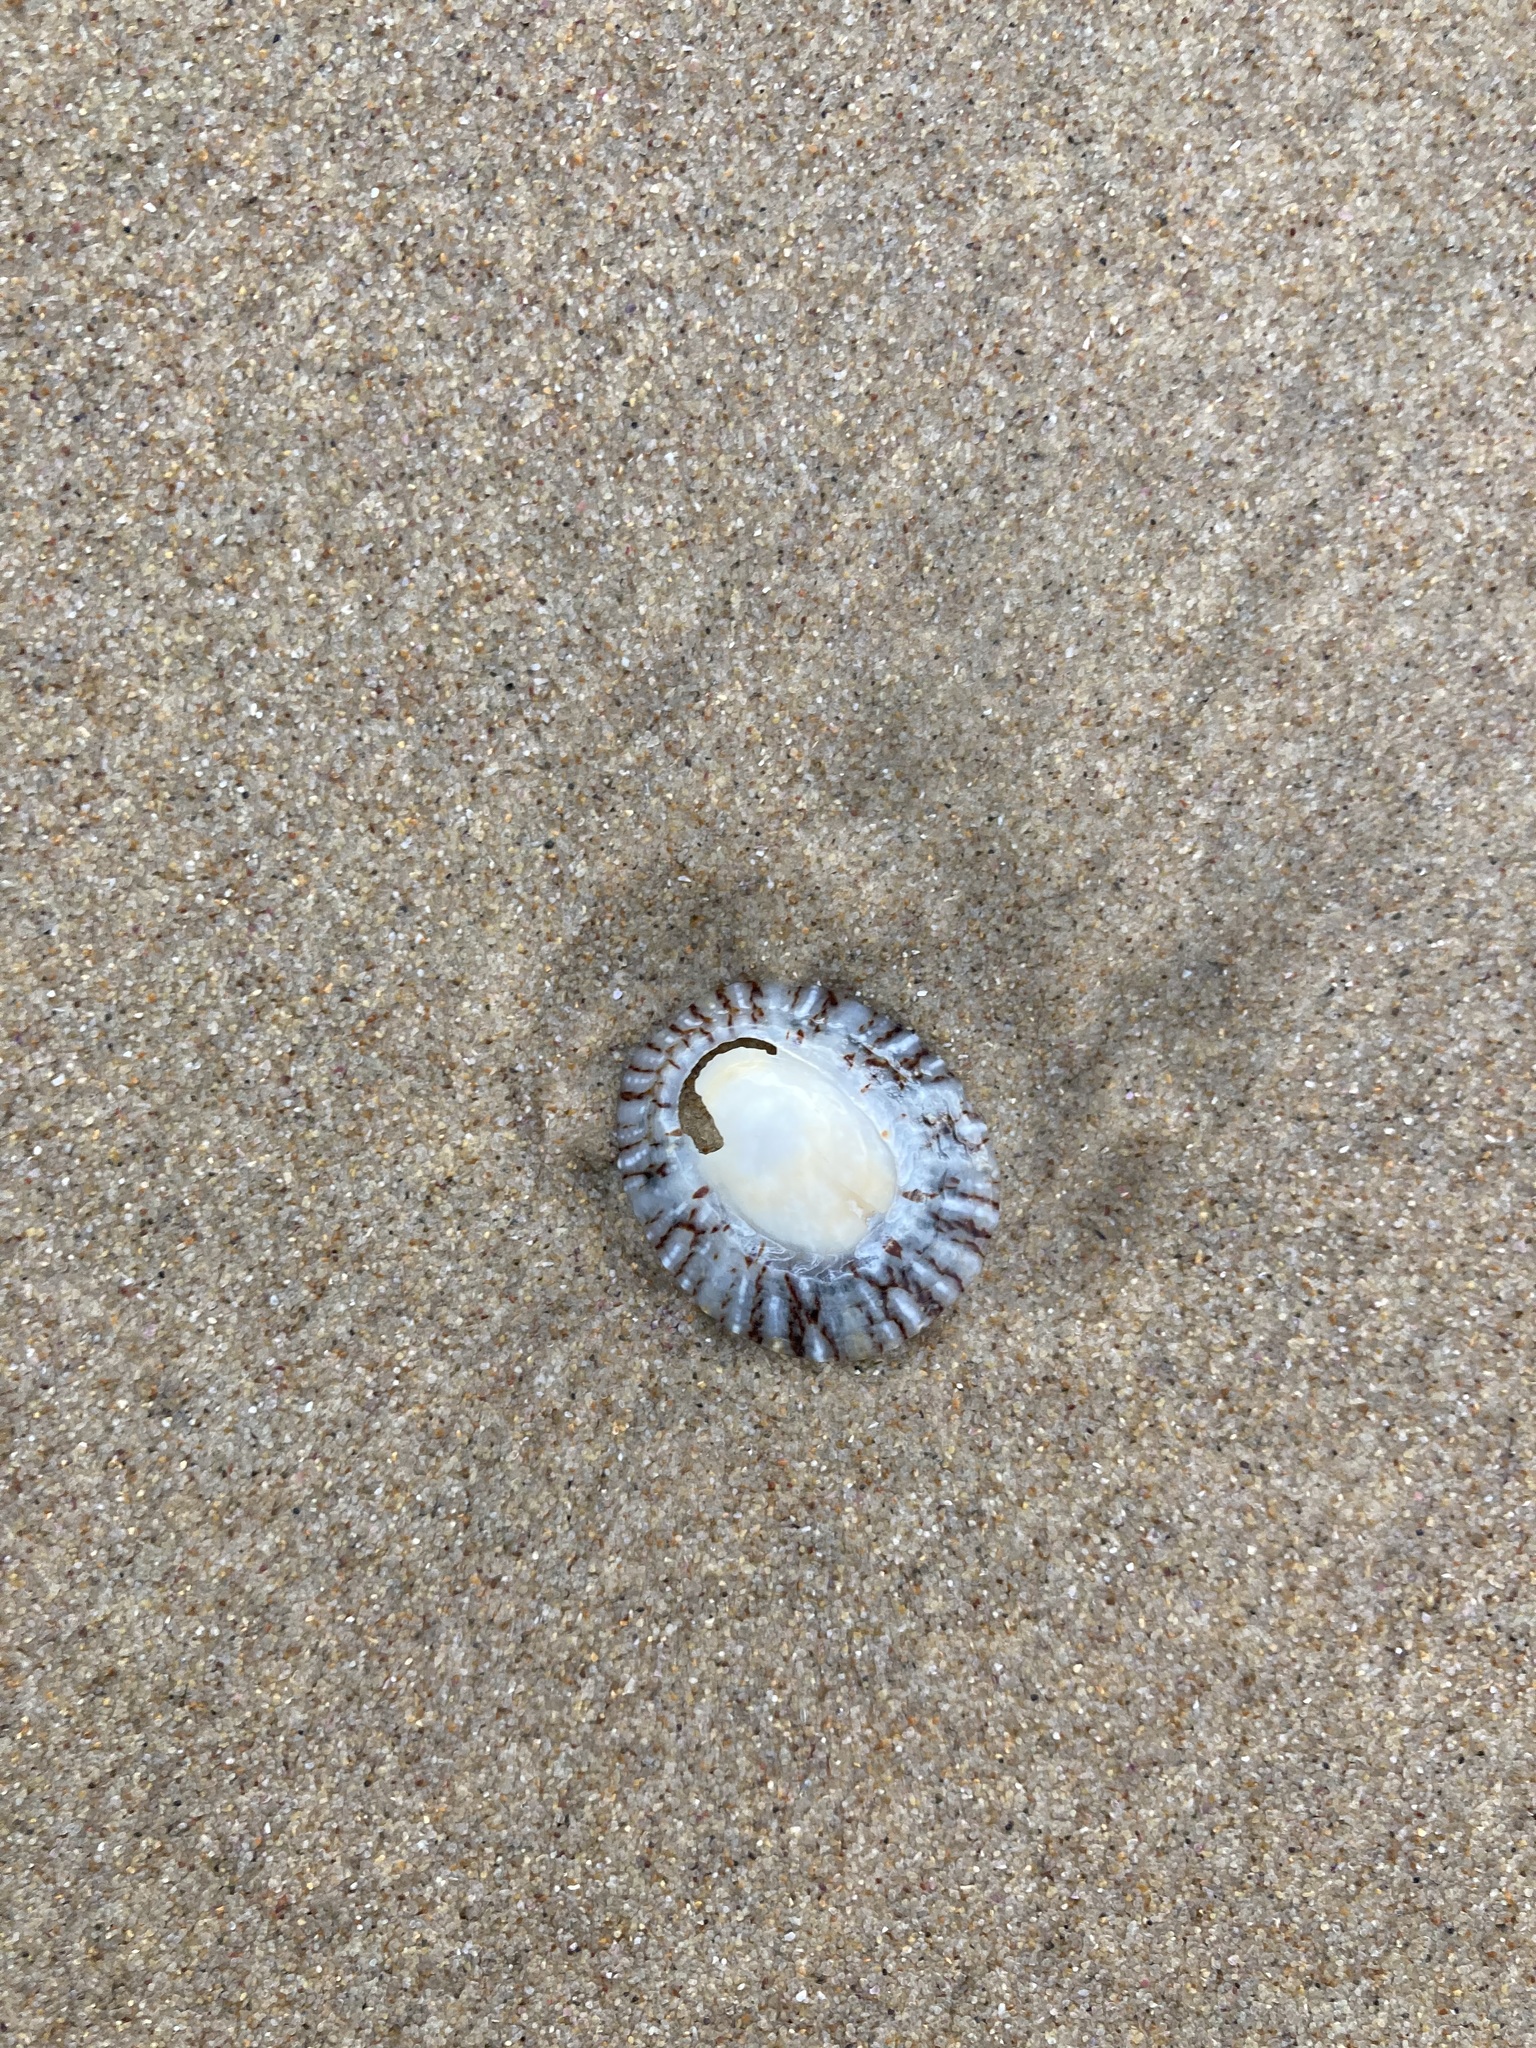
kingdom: Animalia
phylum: Mollusca
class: Gastropoda
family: Nacellidae
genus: Cellana
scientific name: Cellana tramoserica
